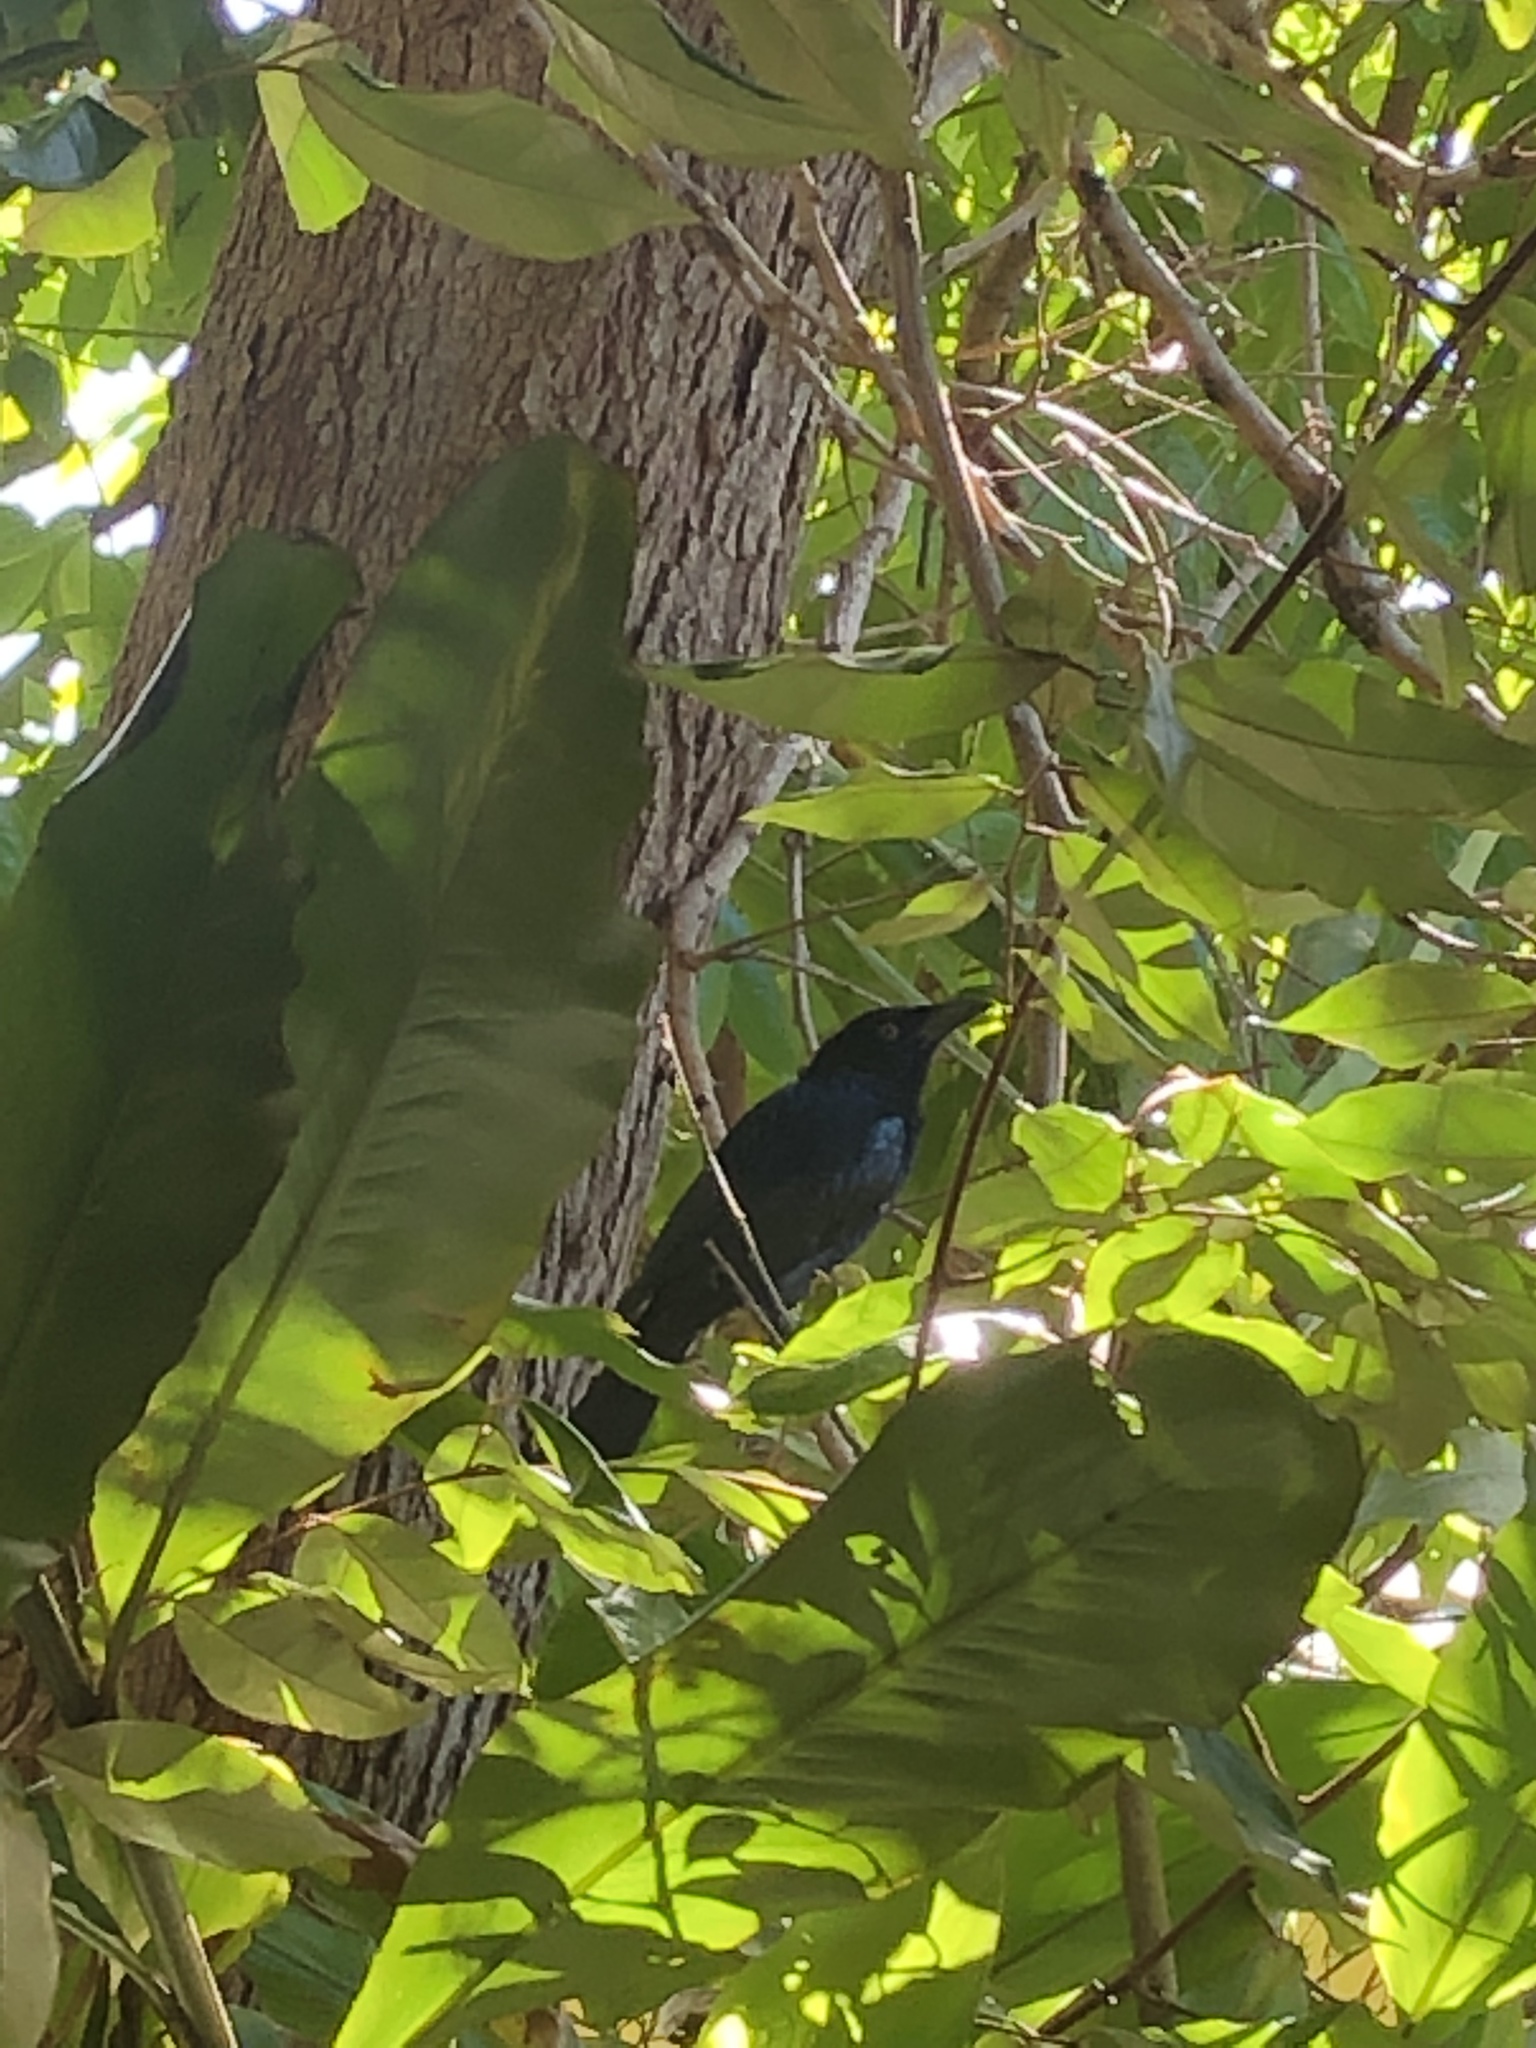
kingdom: Animalia
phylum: Chordata
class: Aves
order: Passeriformes
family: Dicruridae
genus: Dicrurus
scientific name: Dicrurus bracteatus
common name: Spangled drongo
